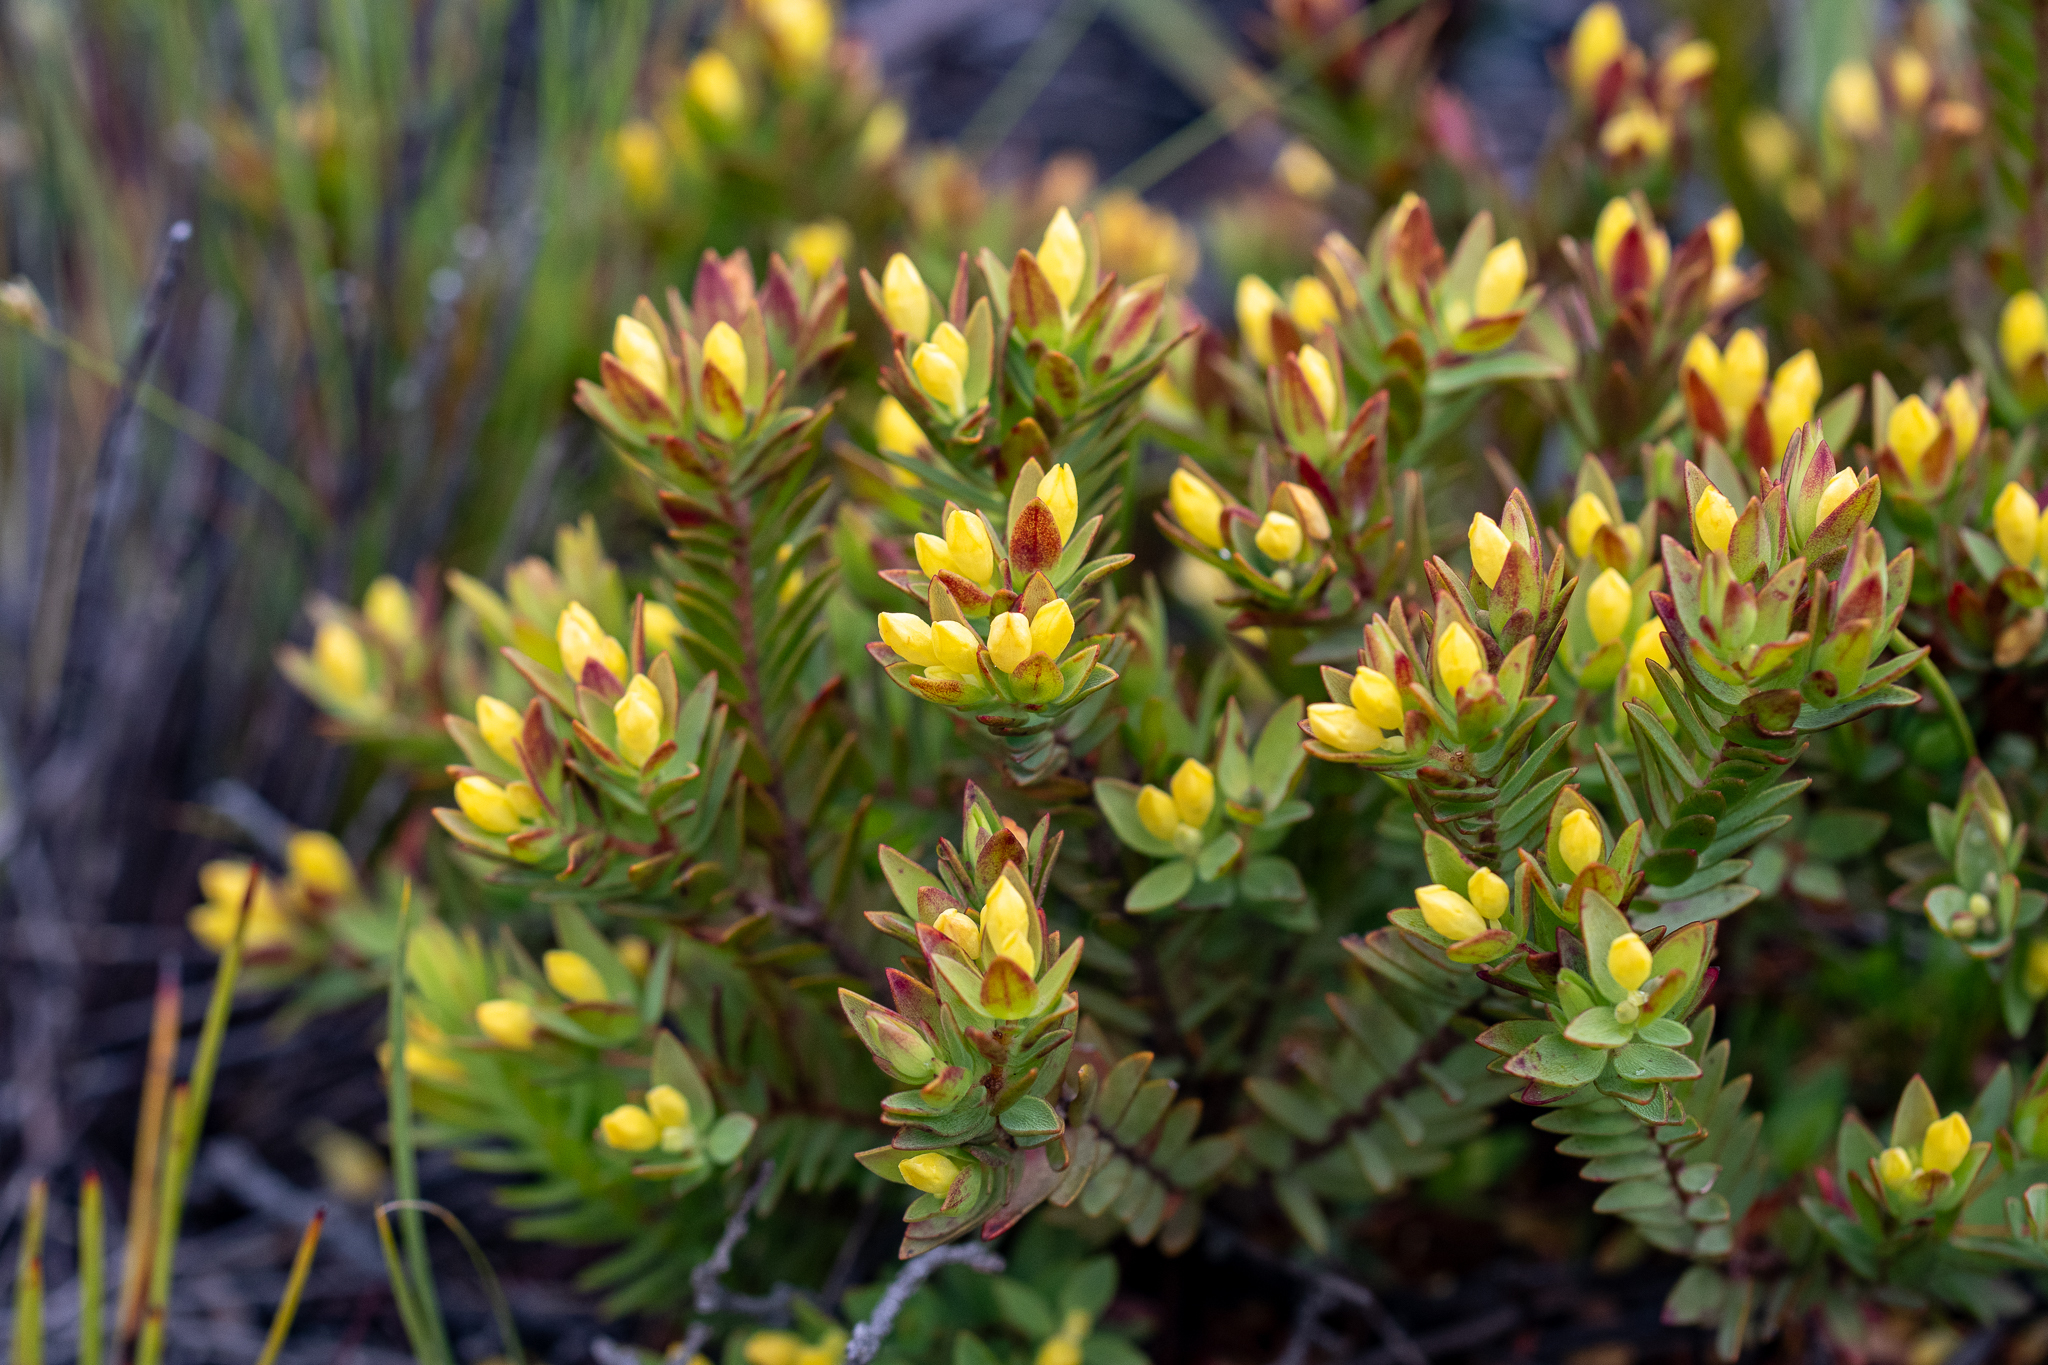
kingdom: Plantae
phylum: Tracheophyta
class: Magnoliopsida
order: Malvales
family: Thymelaeaceae
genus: Gnidia
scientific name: Gnidia juniperifolia
